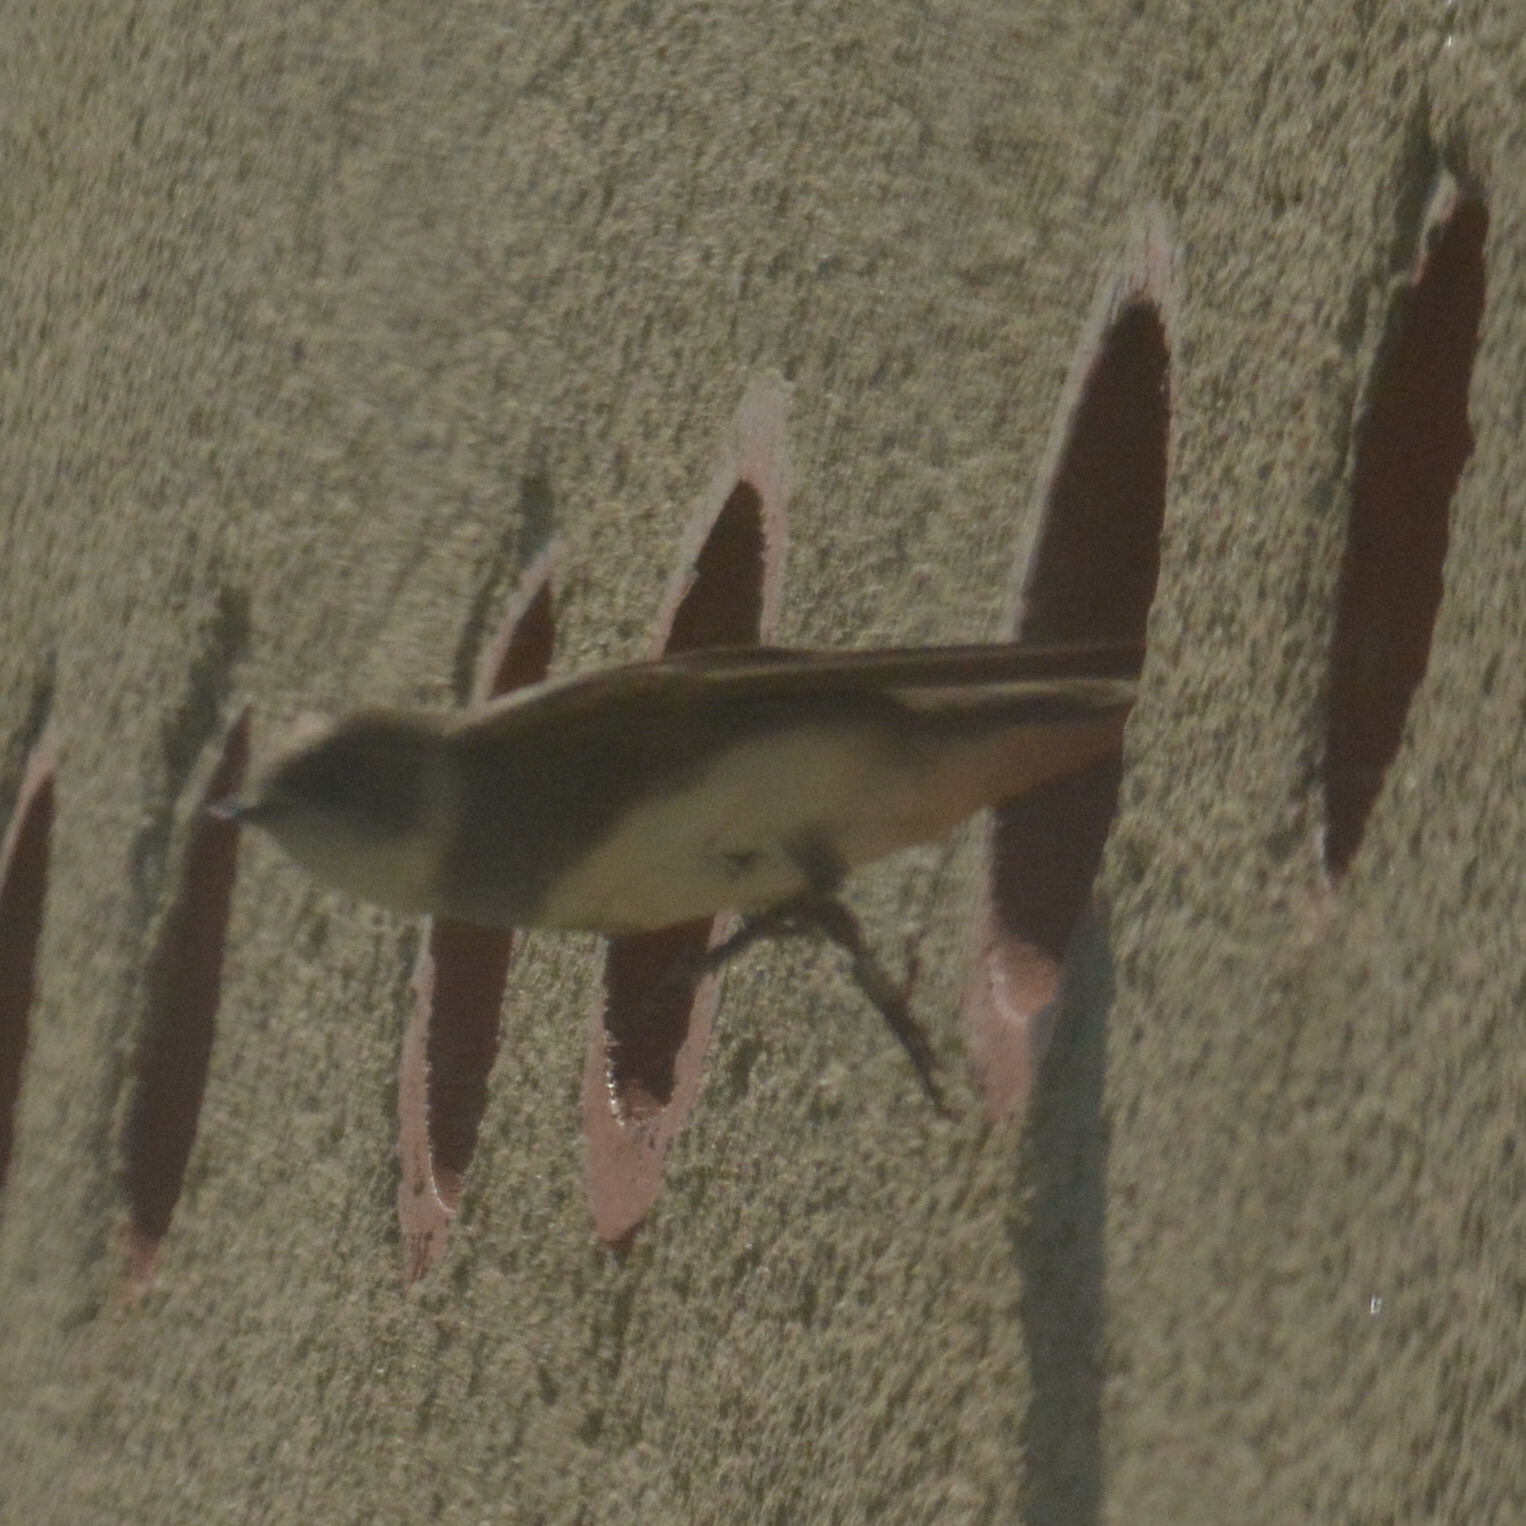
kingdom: Animalia
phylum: Chordata
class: Aves
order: Passeriformes
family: Hirundinidae
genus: Riparia
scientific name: Riparia riparia
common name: Sand martin
